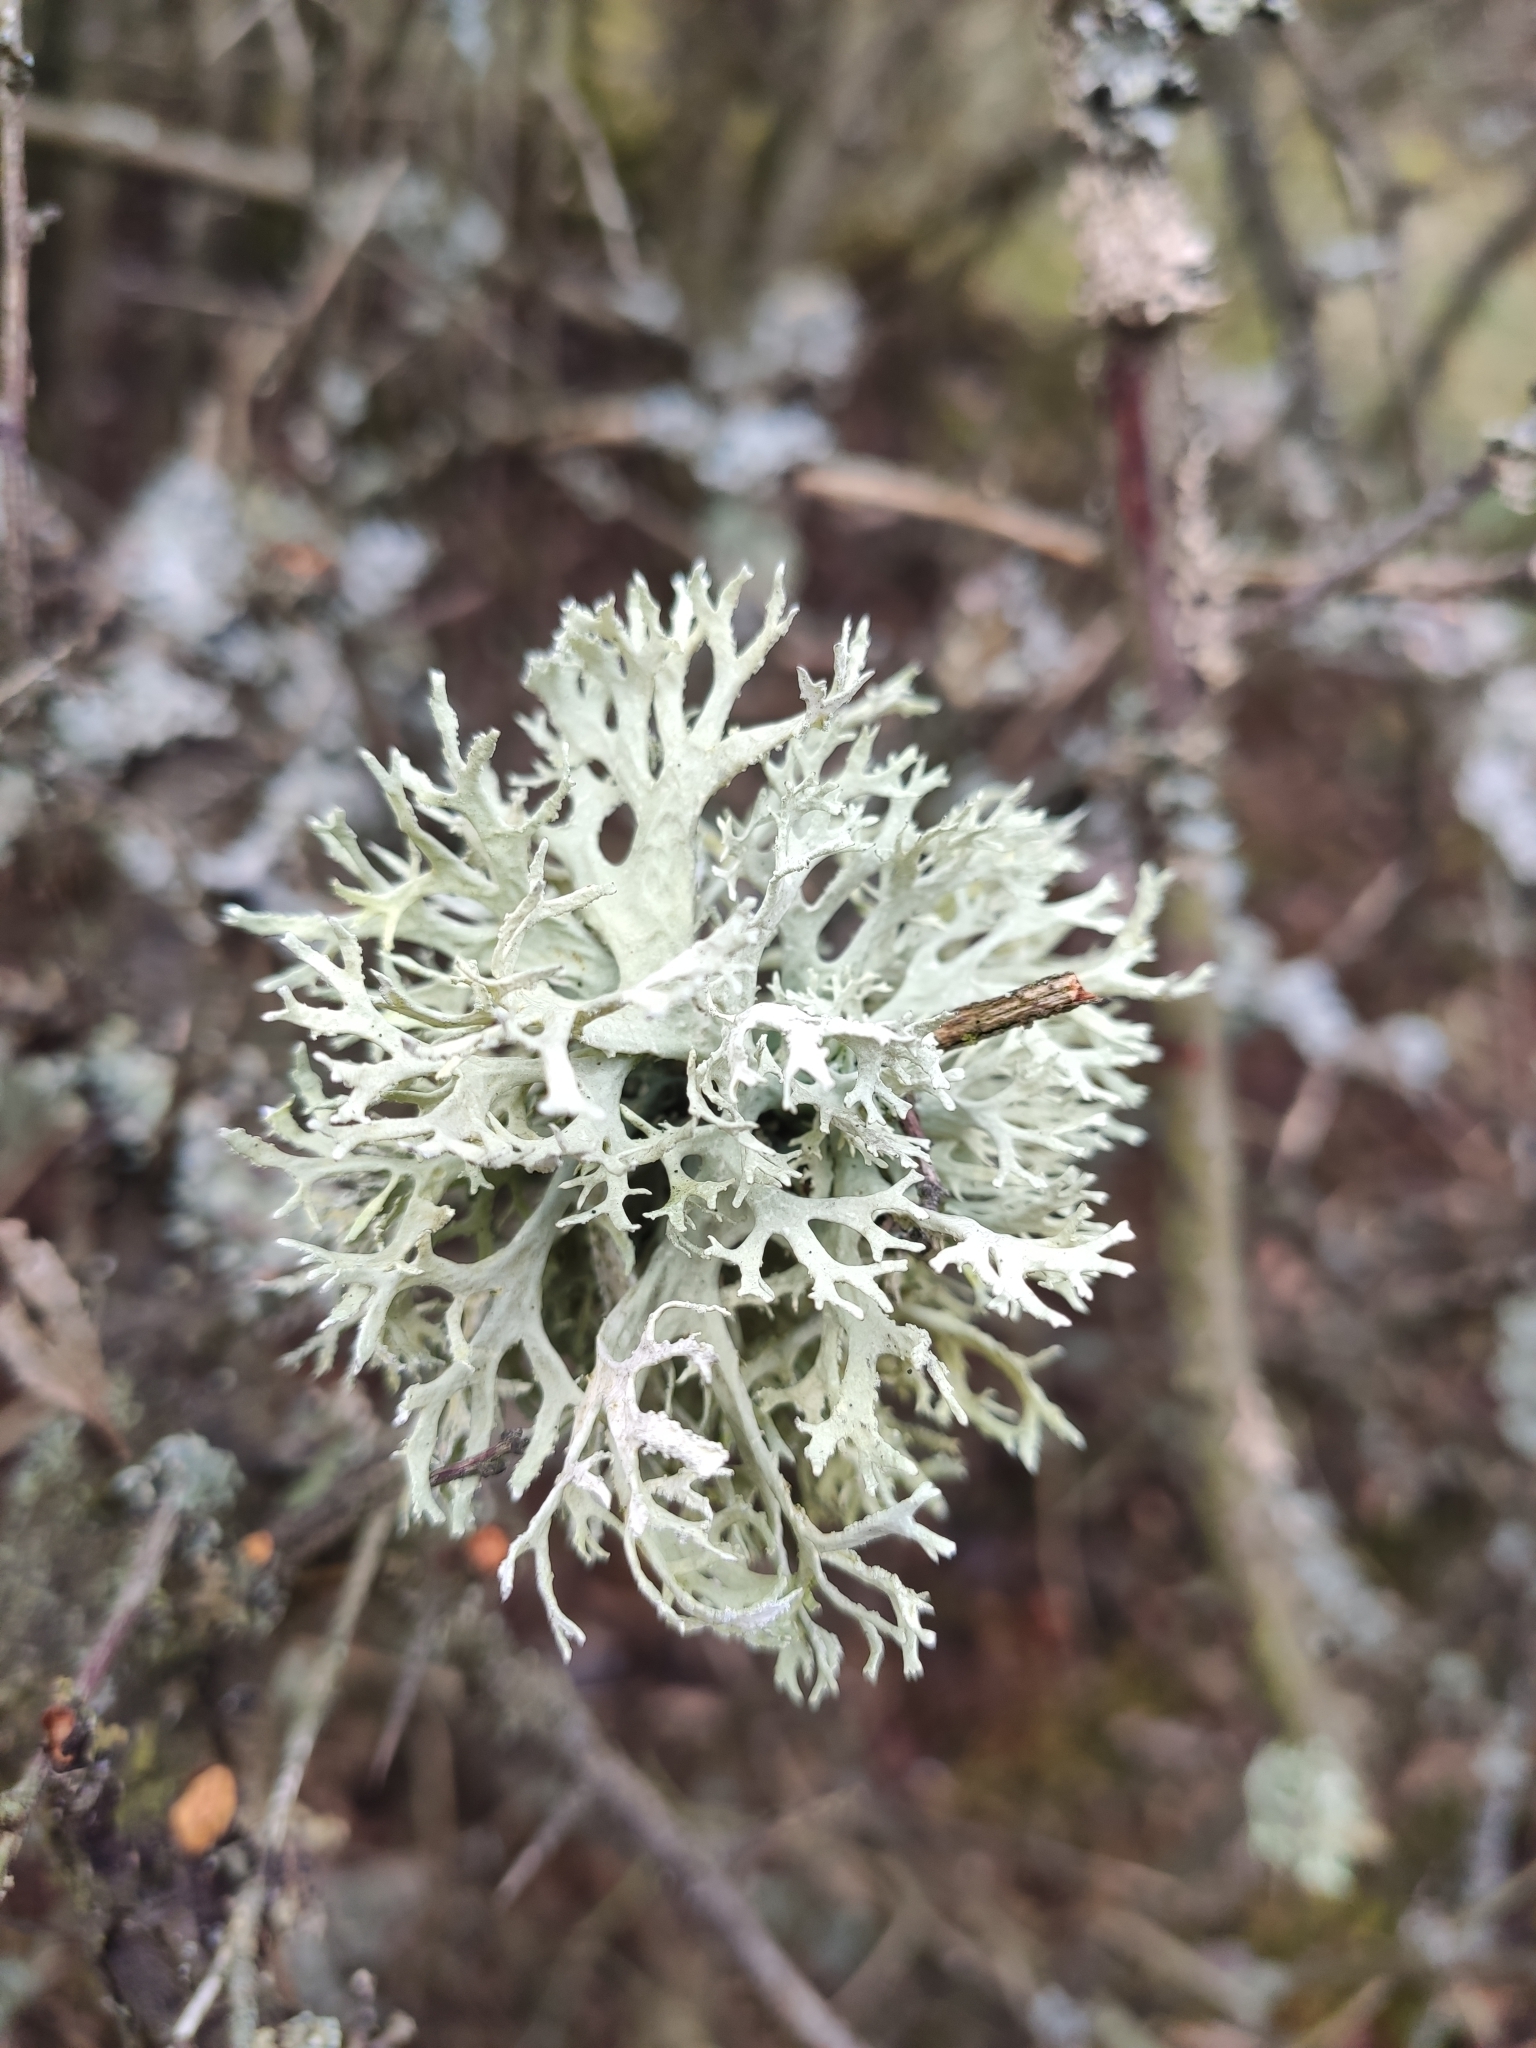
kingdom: Fungi
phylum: Ascomycota
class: Lecanoromycetes
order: Lecanorales
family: Parmeliaceae
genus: Evernia
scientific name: Evernia prunastri
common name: Oak moss
